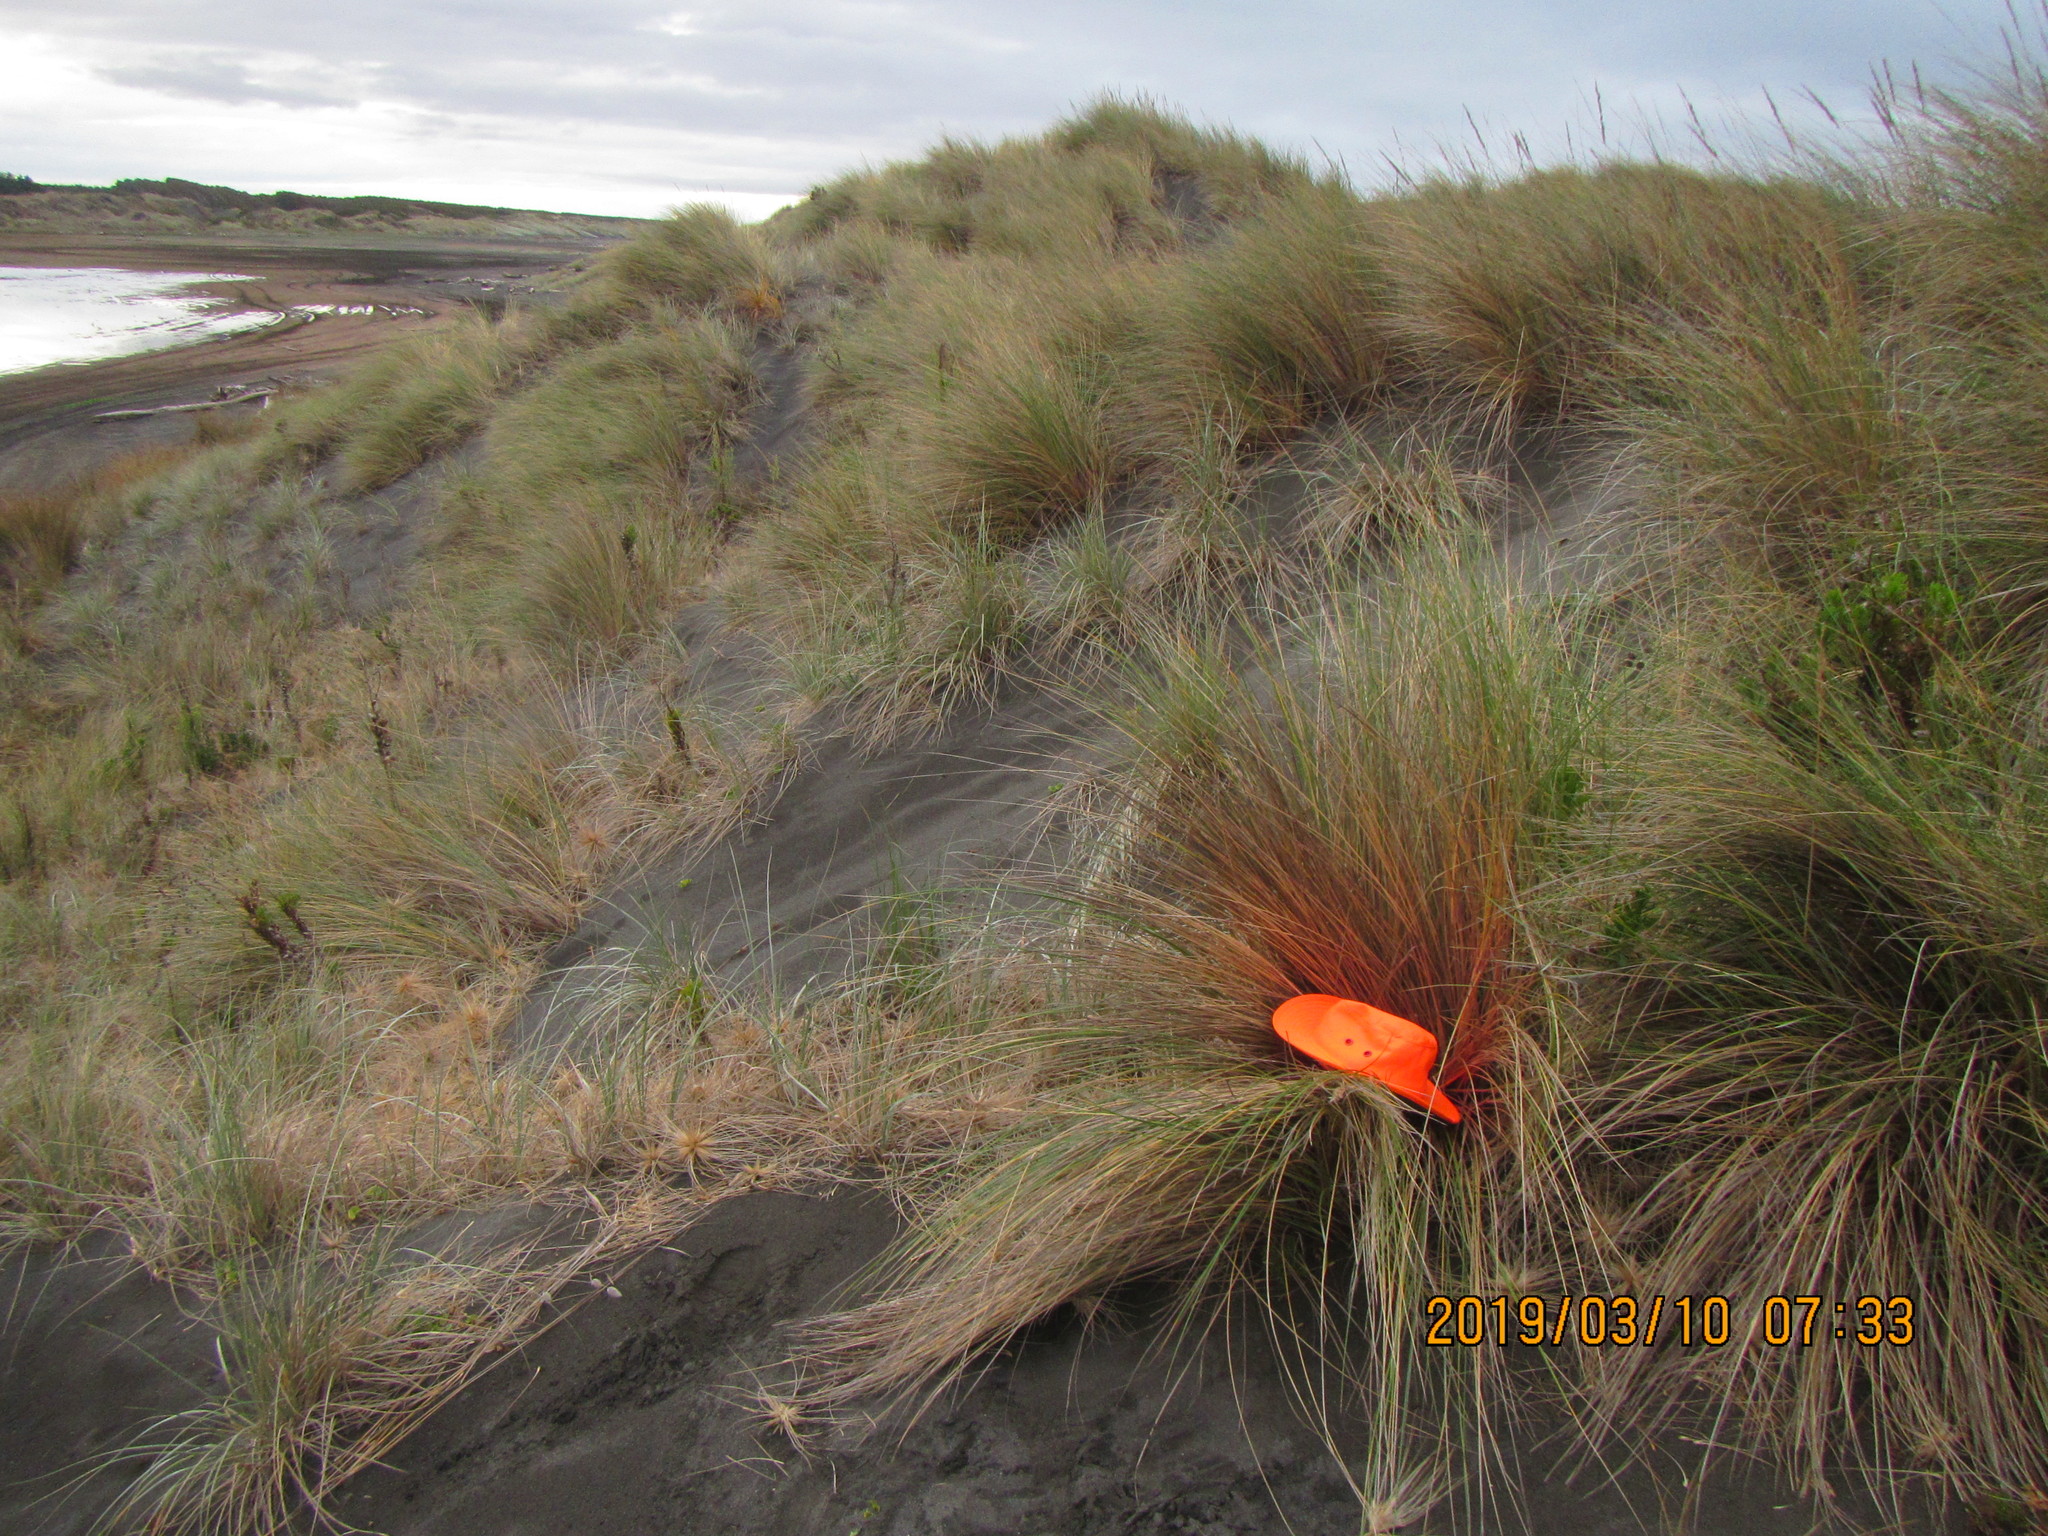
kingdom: Animalia
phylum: Arthropoda
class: Arachnida
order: Araneae
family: Pisauridae
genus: Dolomedes
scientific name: Dolomedes minor
